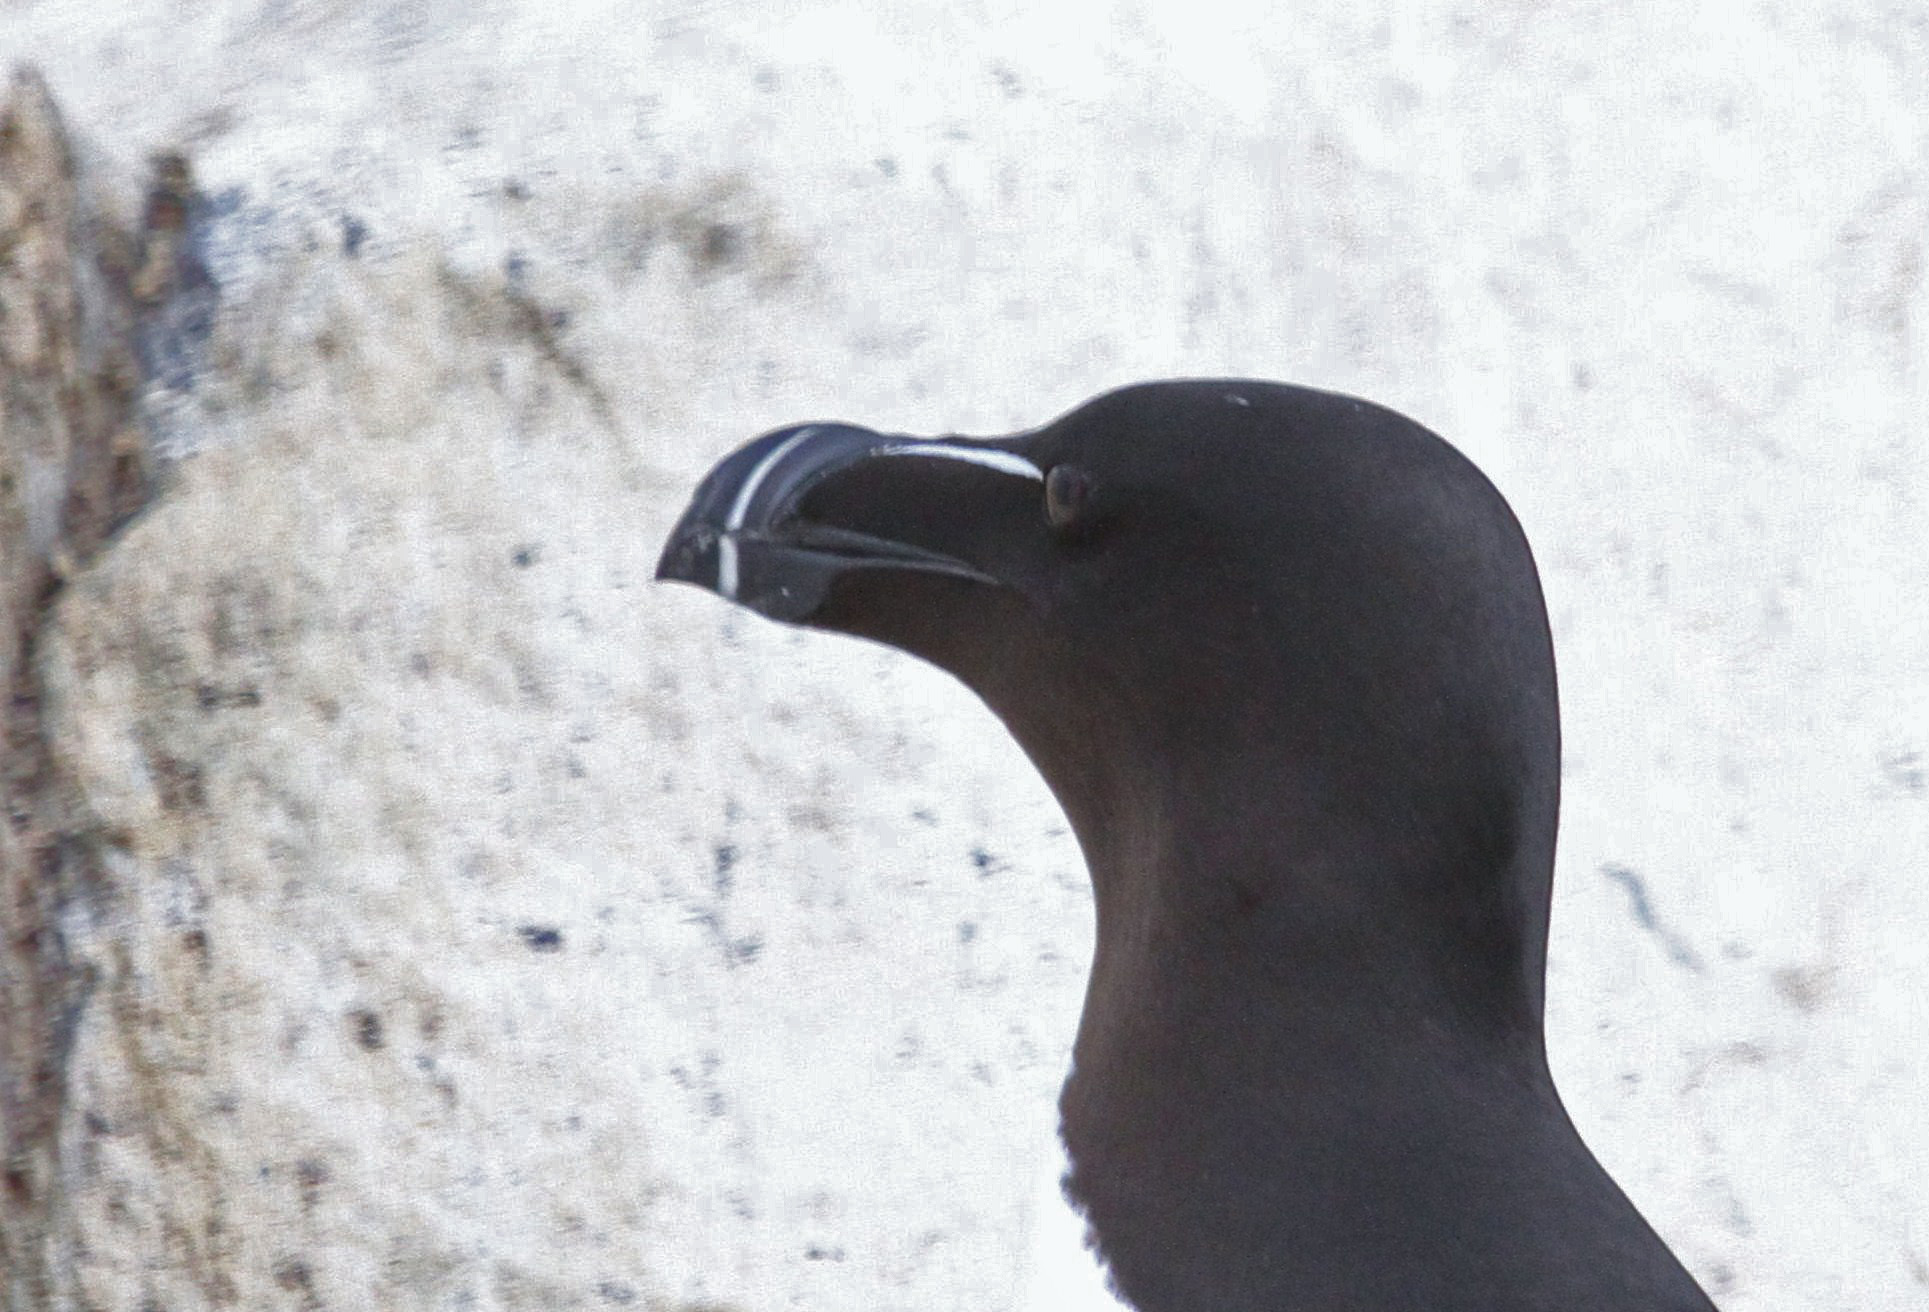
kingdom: Animalia
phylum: Chordata
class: Aves
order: Charadriiformes
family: Alcidae
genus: Alca
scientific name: Alca torda
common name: Razorbill
